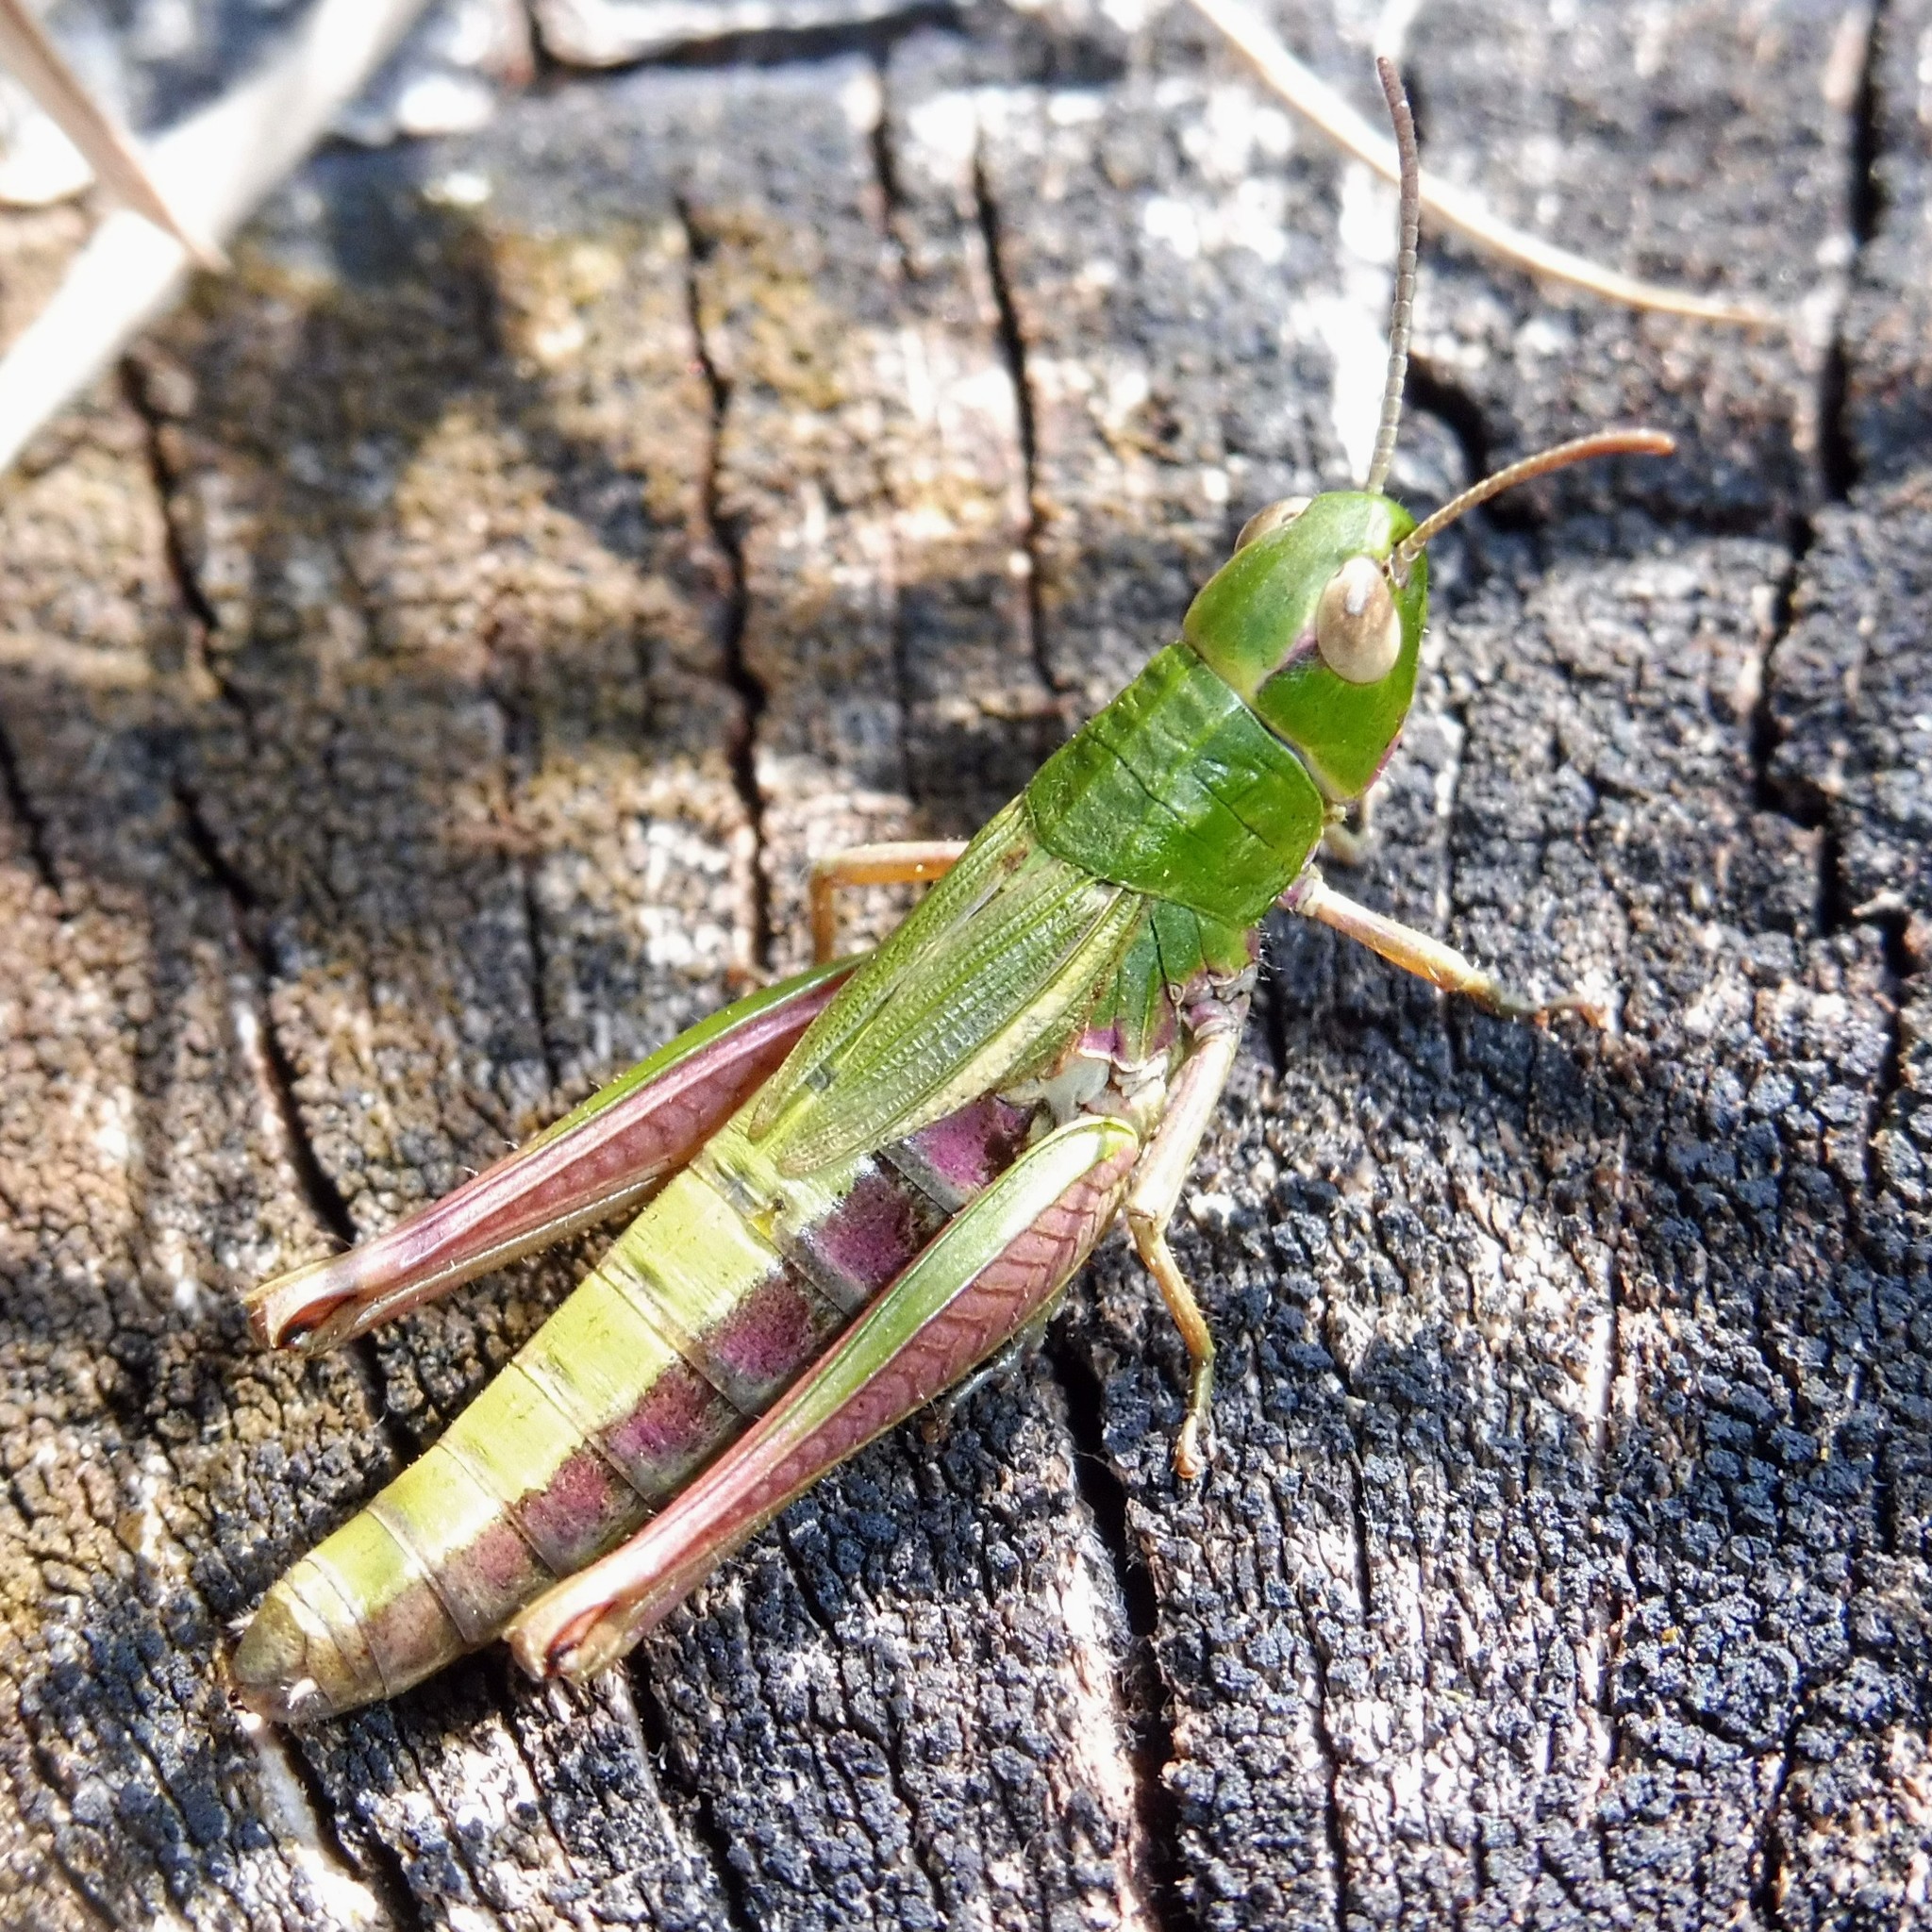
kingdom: Animalia
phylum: Arthropoda
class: Insecta
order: Orthoptera
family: Acrididae
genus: Pseudochorthippus
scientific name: Pseudochorthippus parallelus
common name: Meadow grasshopper
